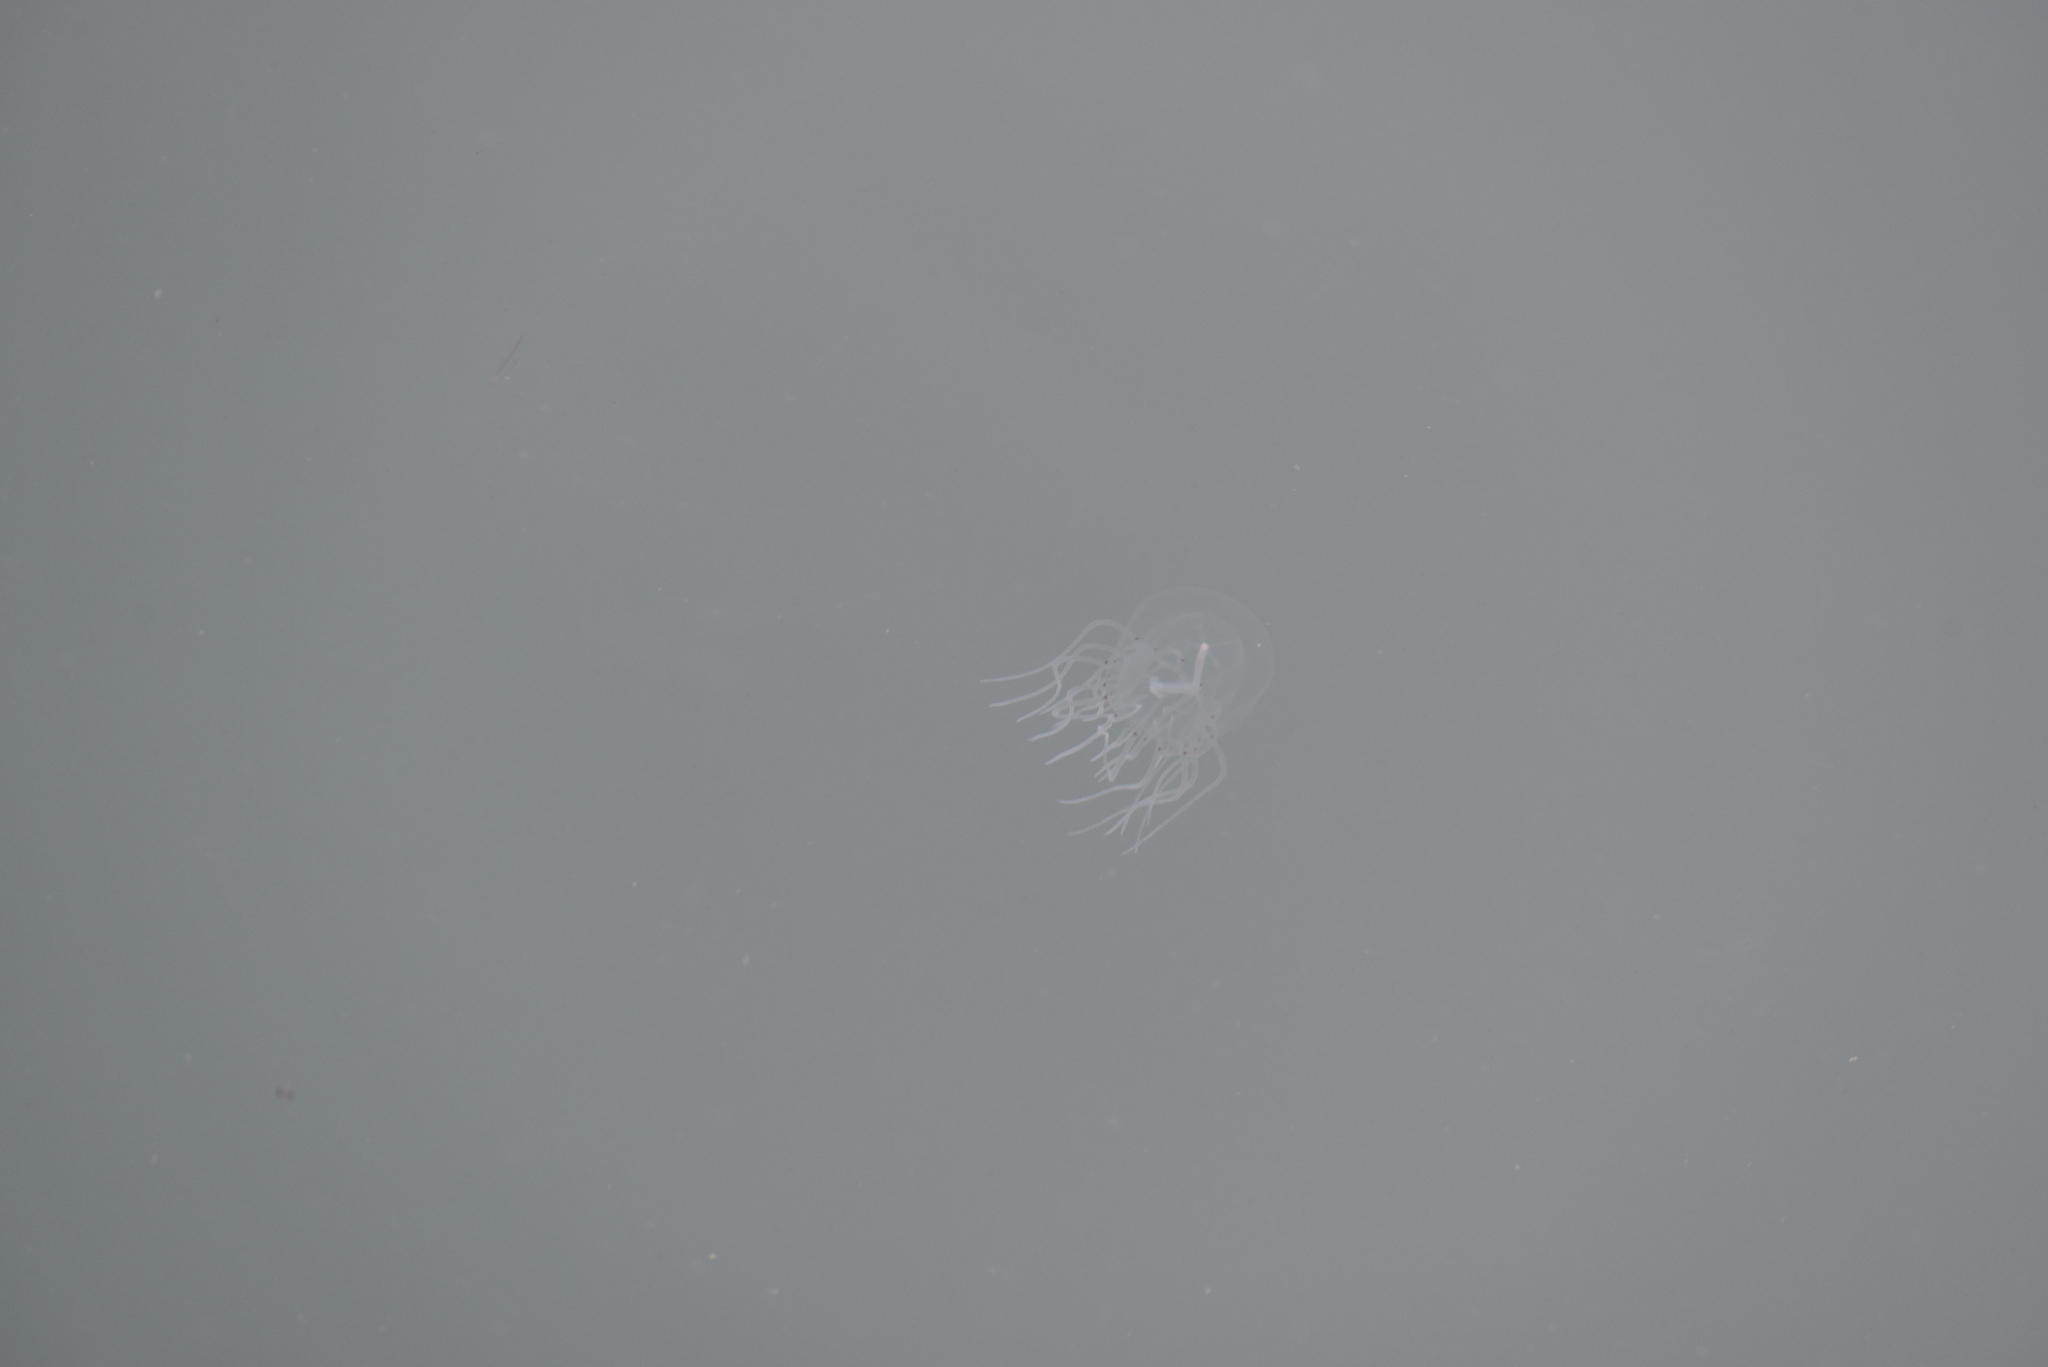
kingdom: Animalia
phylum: Cnidaria
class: Hydrozoa
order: Anthoathecata
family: Corynidae
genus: Polyorchis
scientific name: Polyorchis penicillatus
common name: Penicillate jellyfish
